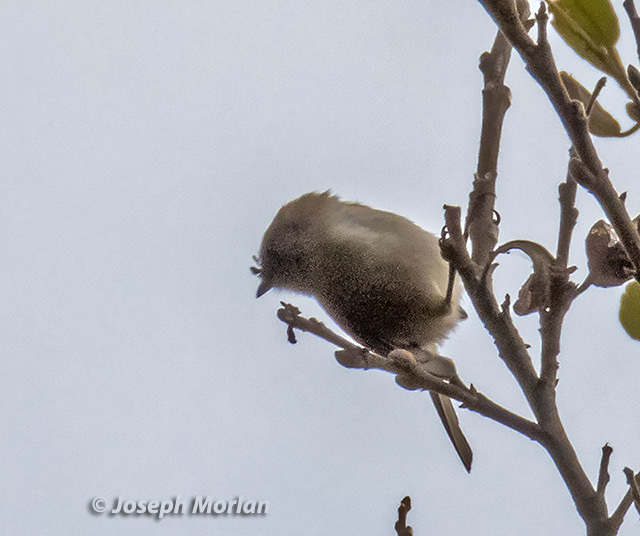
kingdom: Animalia
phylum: Chordata
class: Aves
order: Passeriformes
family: Aegithalidae
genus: Psaltriparus
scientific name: Psaltriparus minimus
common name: American bushtit
